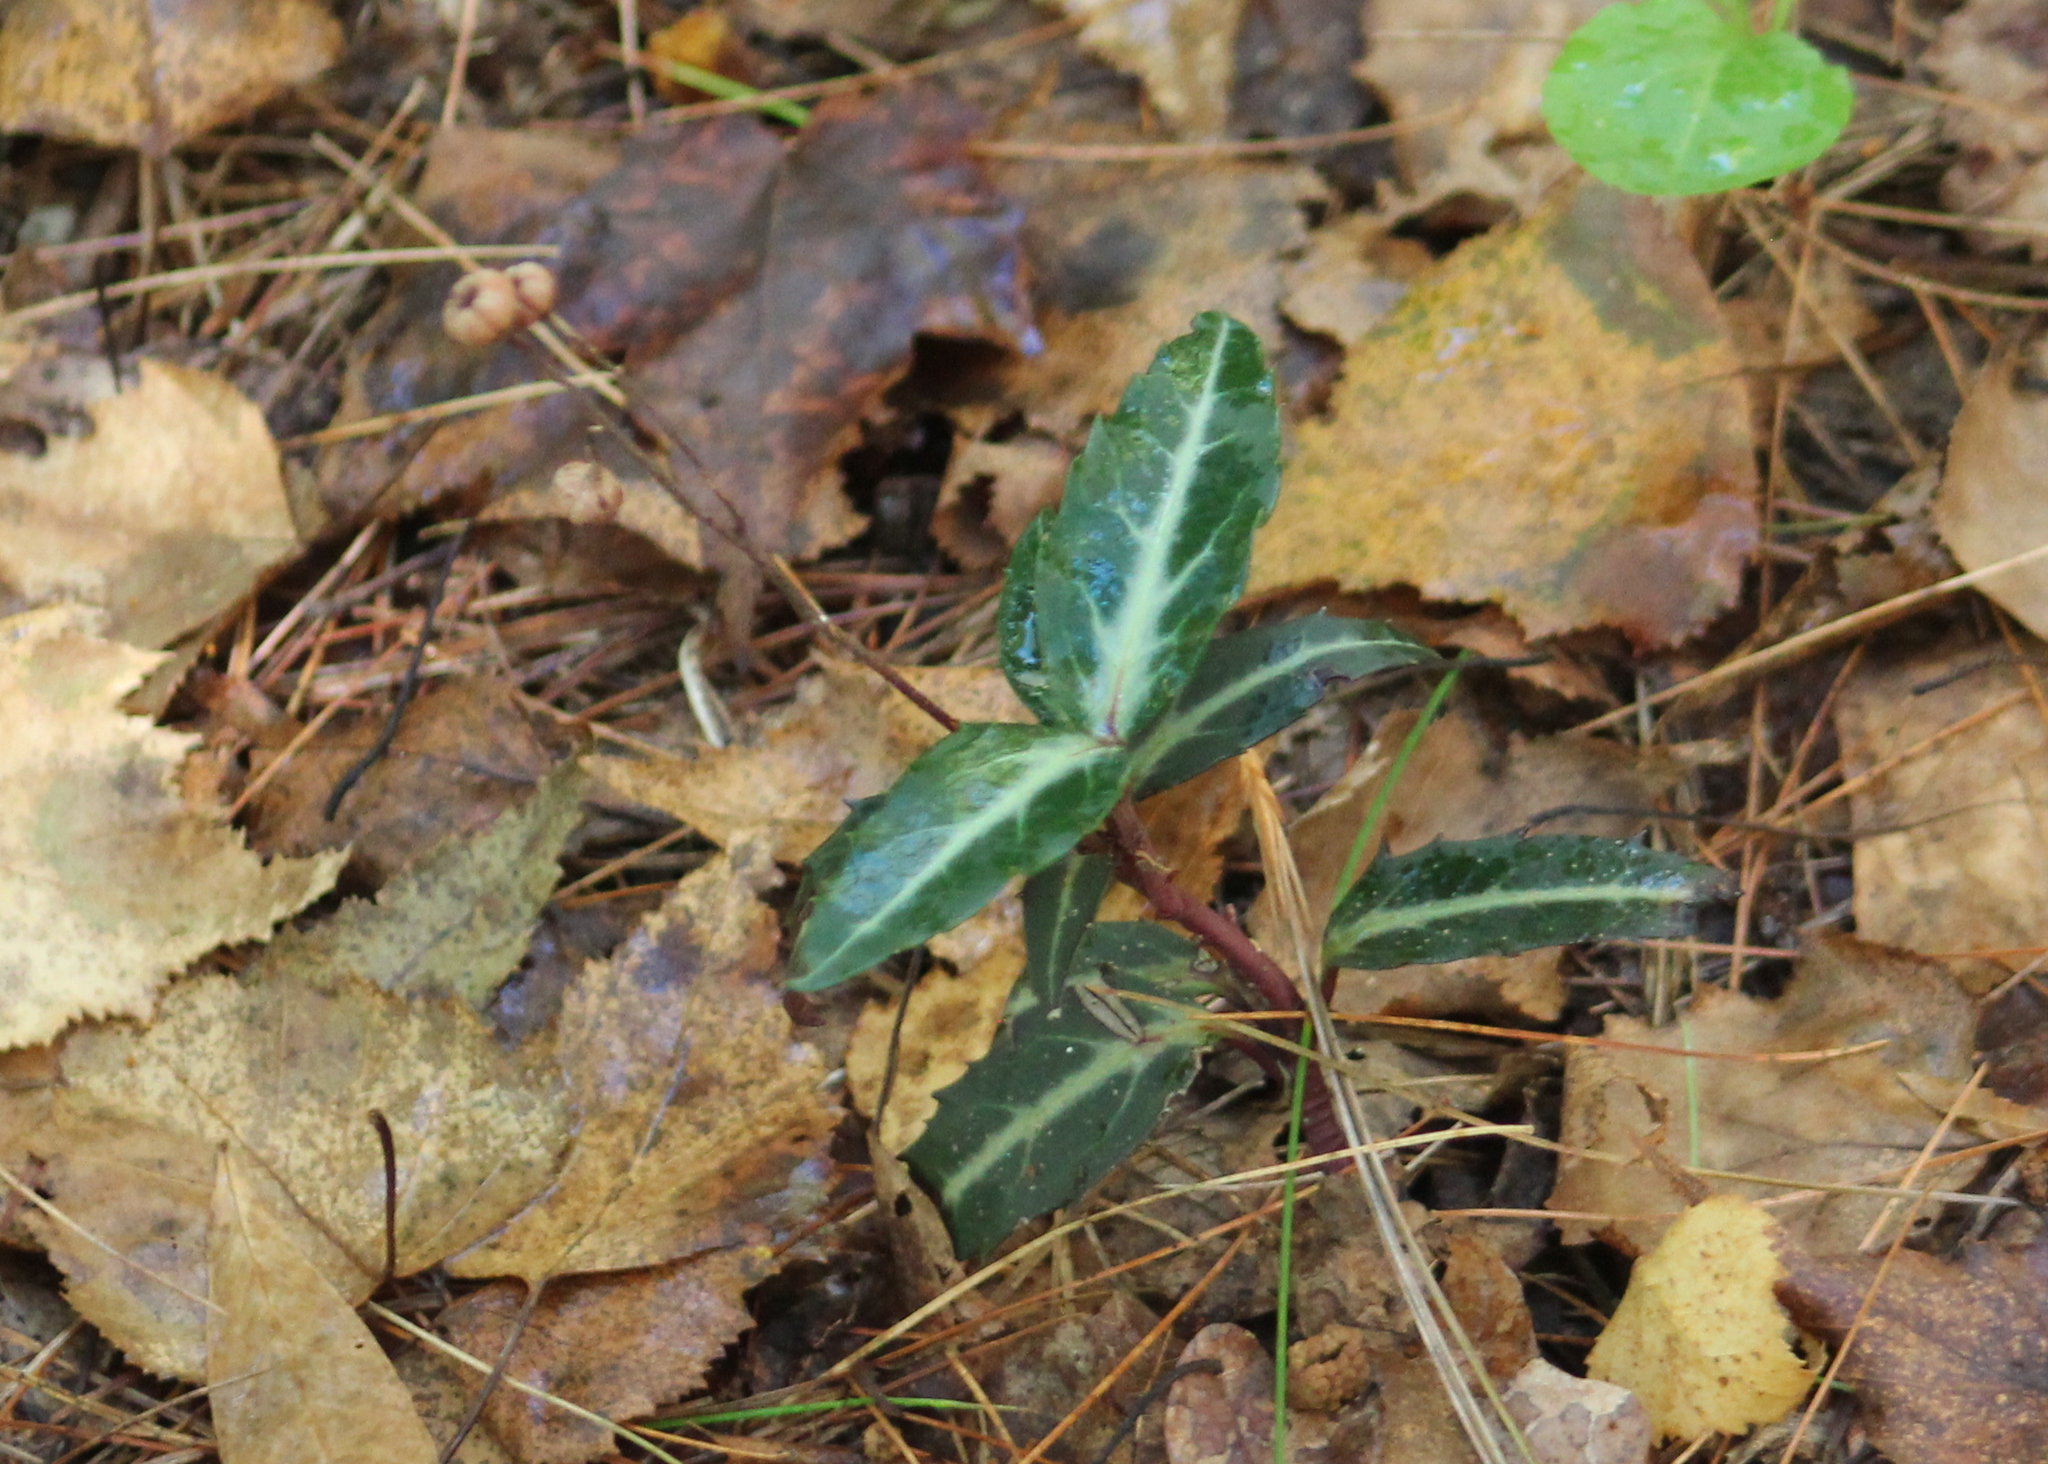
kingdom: Plantae
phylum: Tracheophyta
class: Magnoliopsida
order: Ericales
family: Ericaceae
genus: Chimaphila
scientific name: Chimaphila maculata
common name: Spotted pipsissewa
